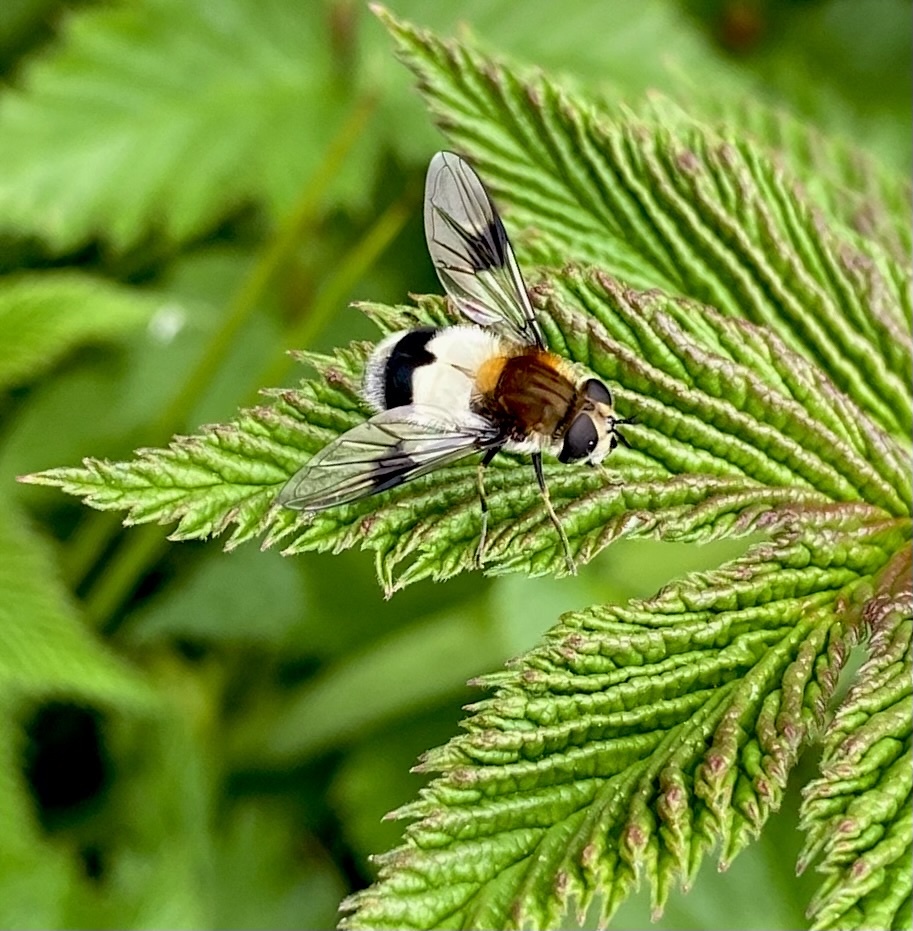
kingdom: Animalia
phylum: Arthropoda
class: Insecta
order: Diptera
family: Syrphidae
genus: Leucozona
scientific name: Leucozona lucorum
